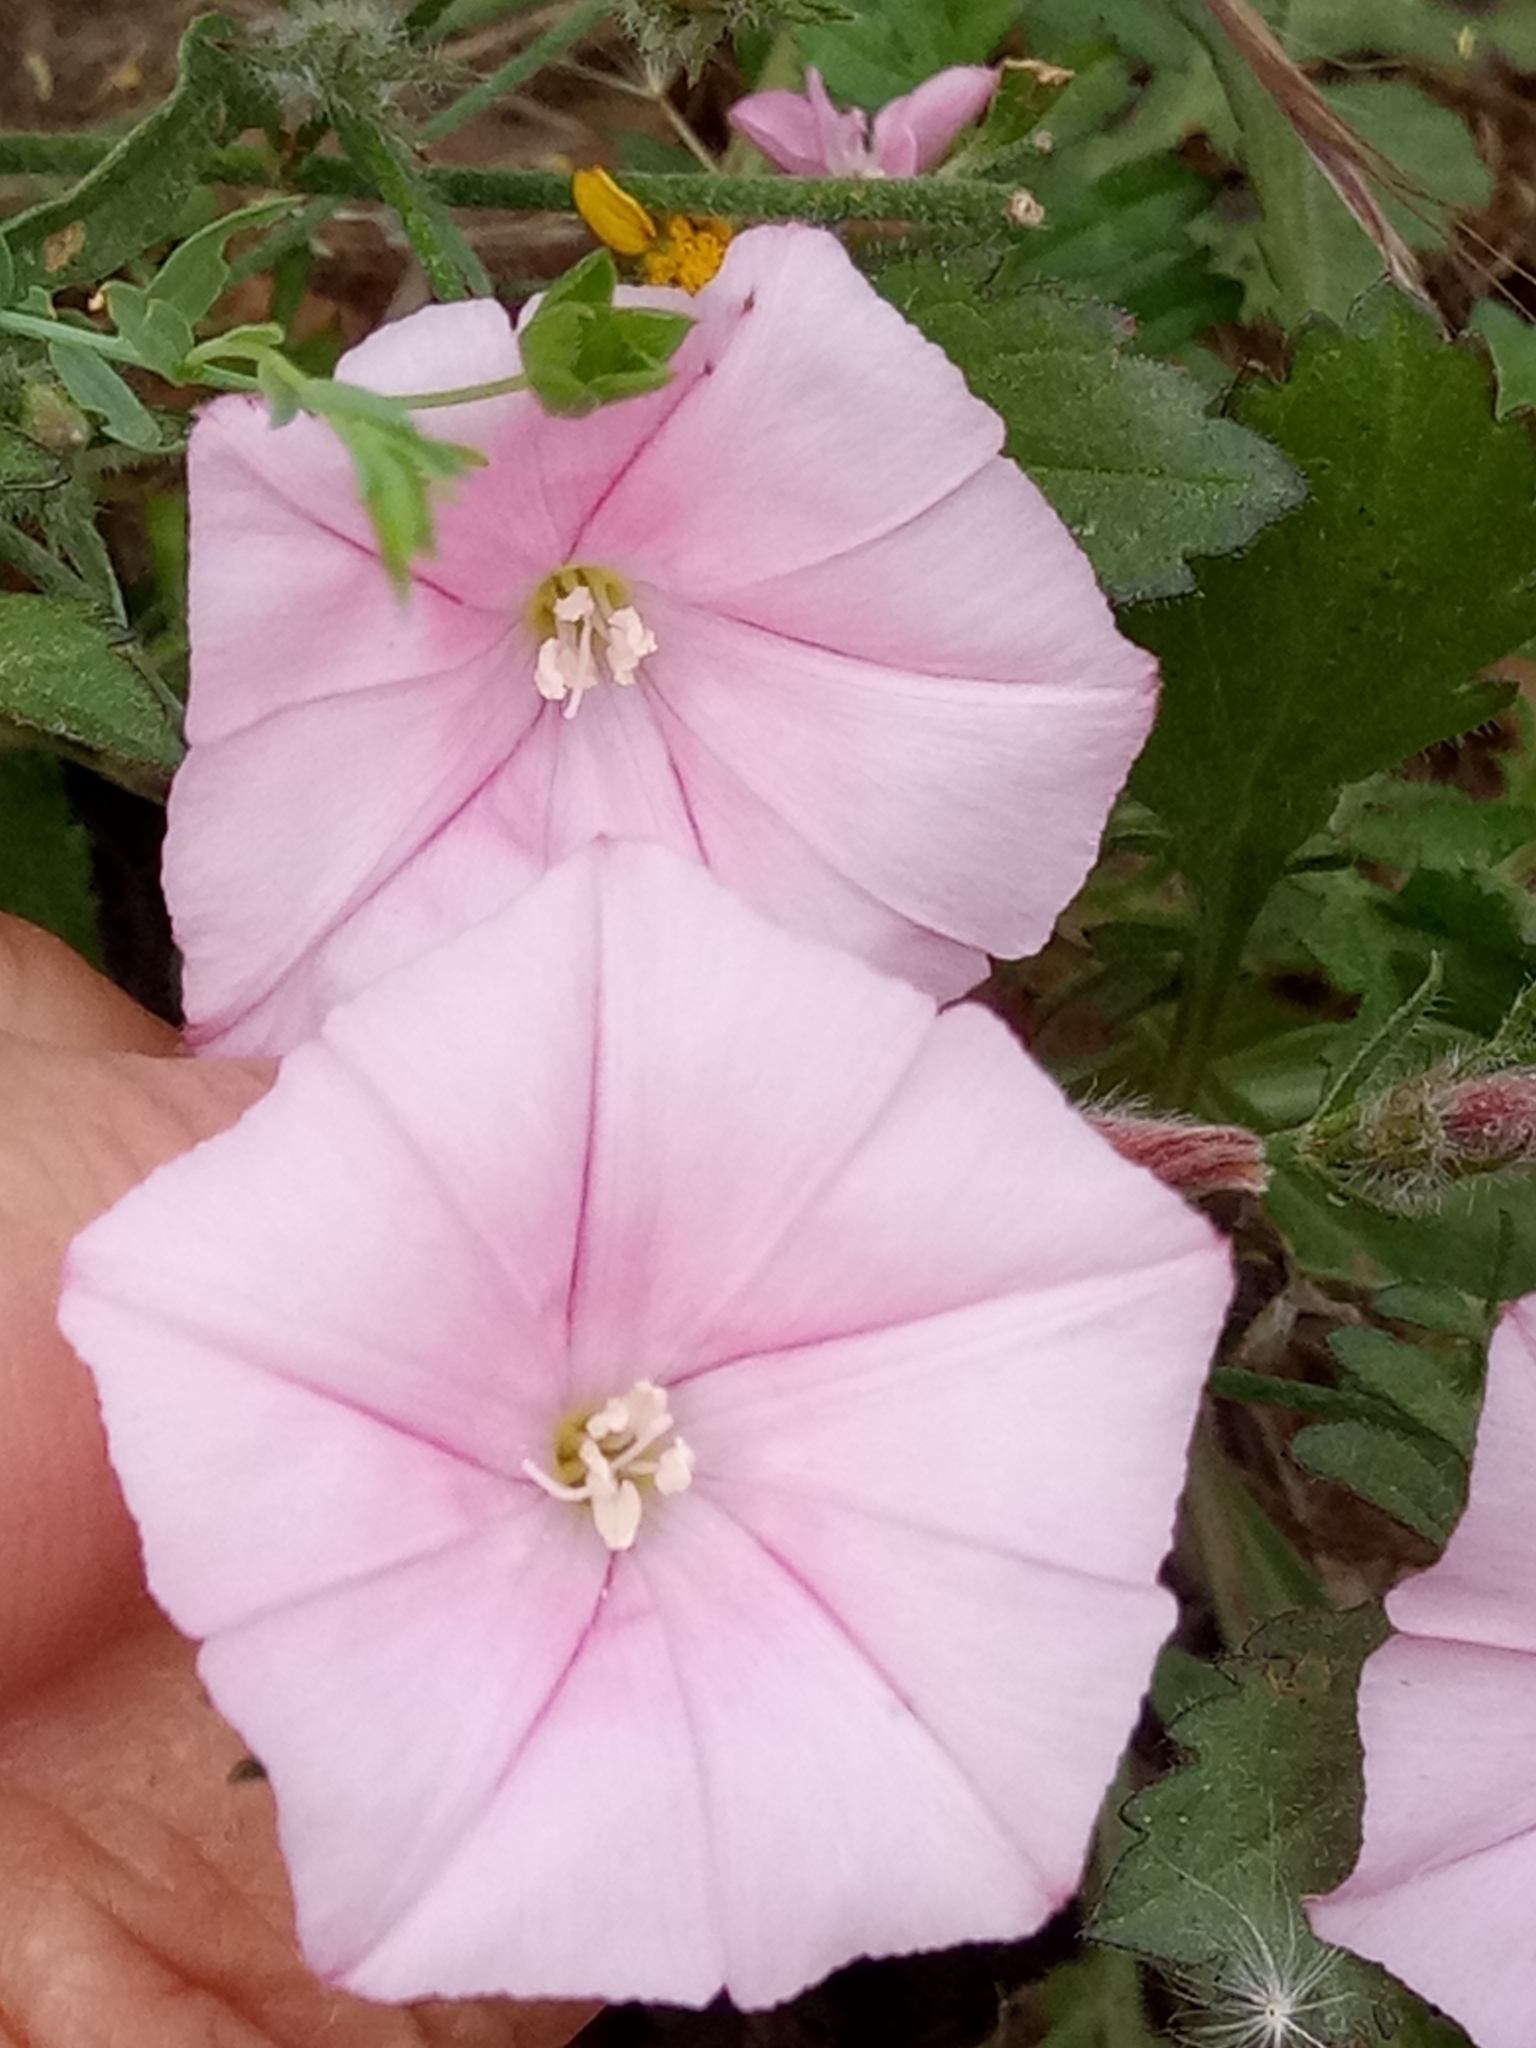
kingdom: Plantae
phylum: Tracheophyta
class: Magnoliopsida
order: Solanales
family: Convolvulaceae
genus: Convolvulus
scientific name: Convolvulus cantabrica
